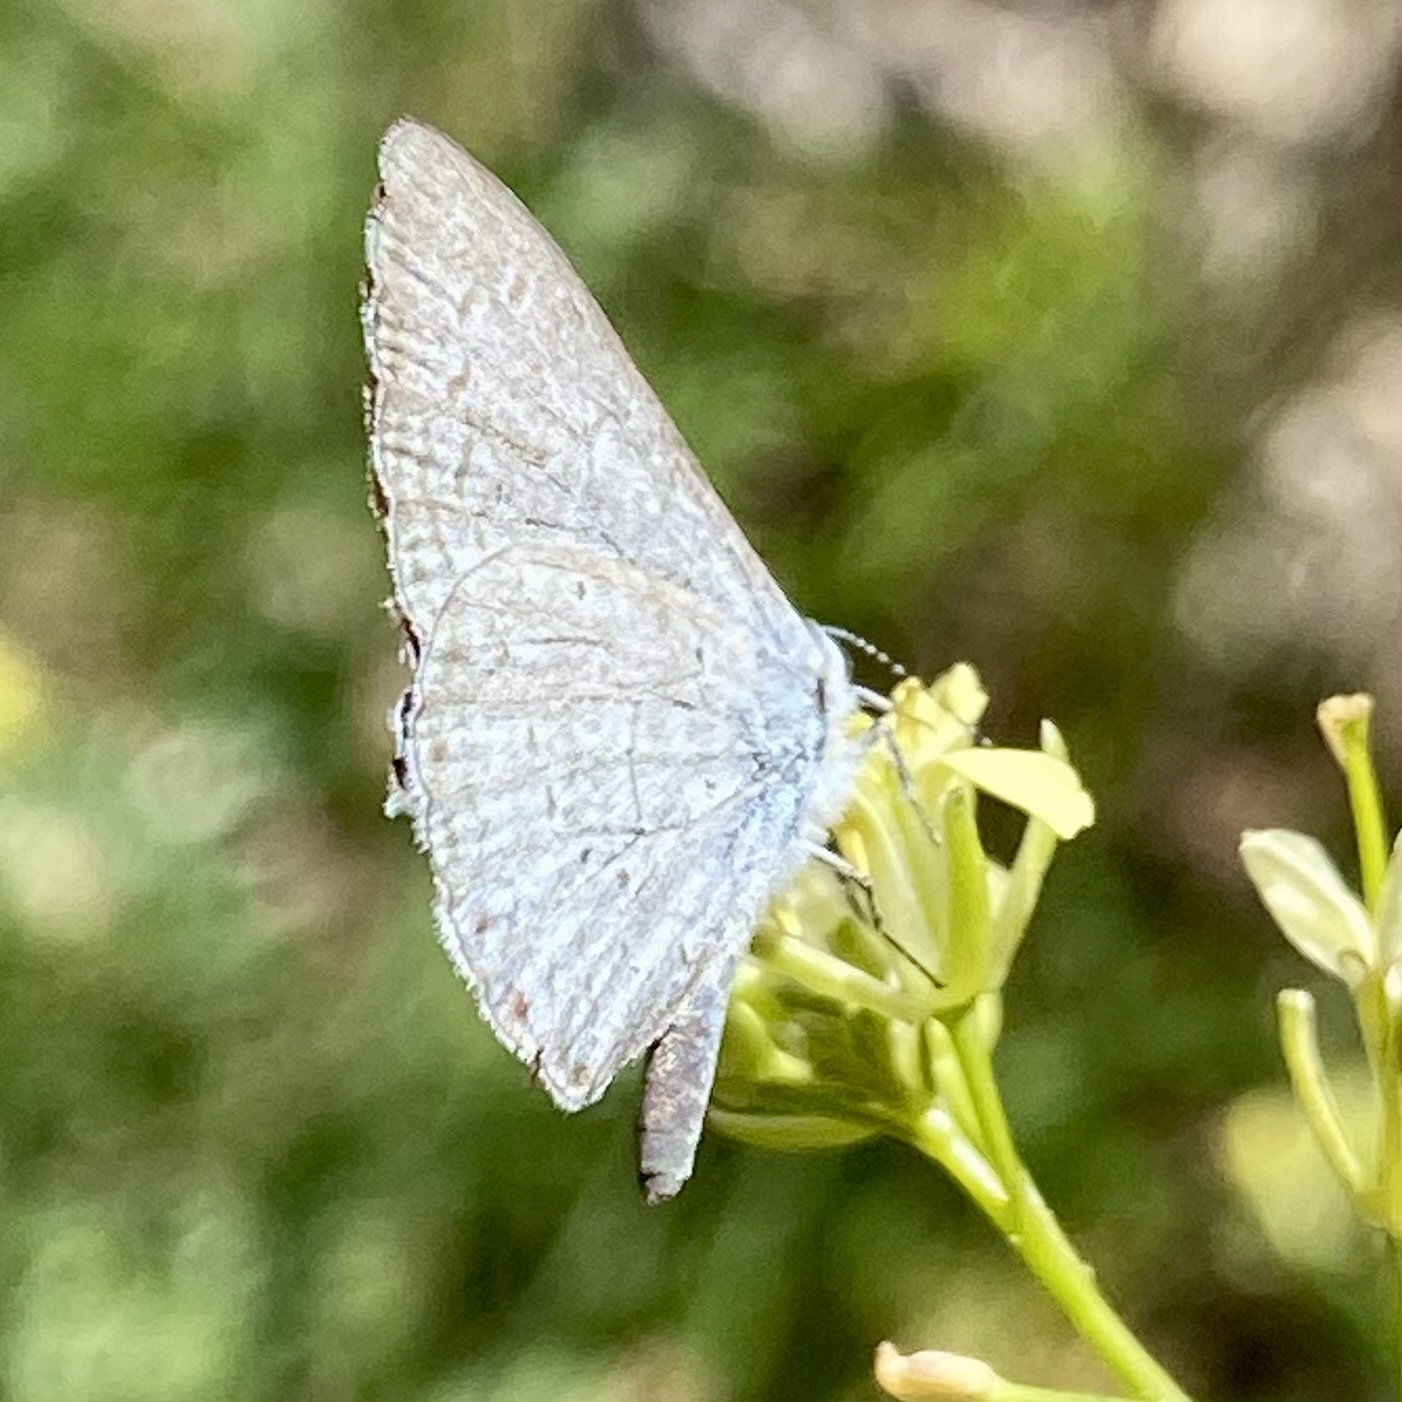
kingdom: Animalia
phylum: Arthropoda
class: Insecta
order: Lepidoptera
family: Lycaenidae
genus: Celastrina
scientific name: Celastrina ladon
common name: Spring azure
